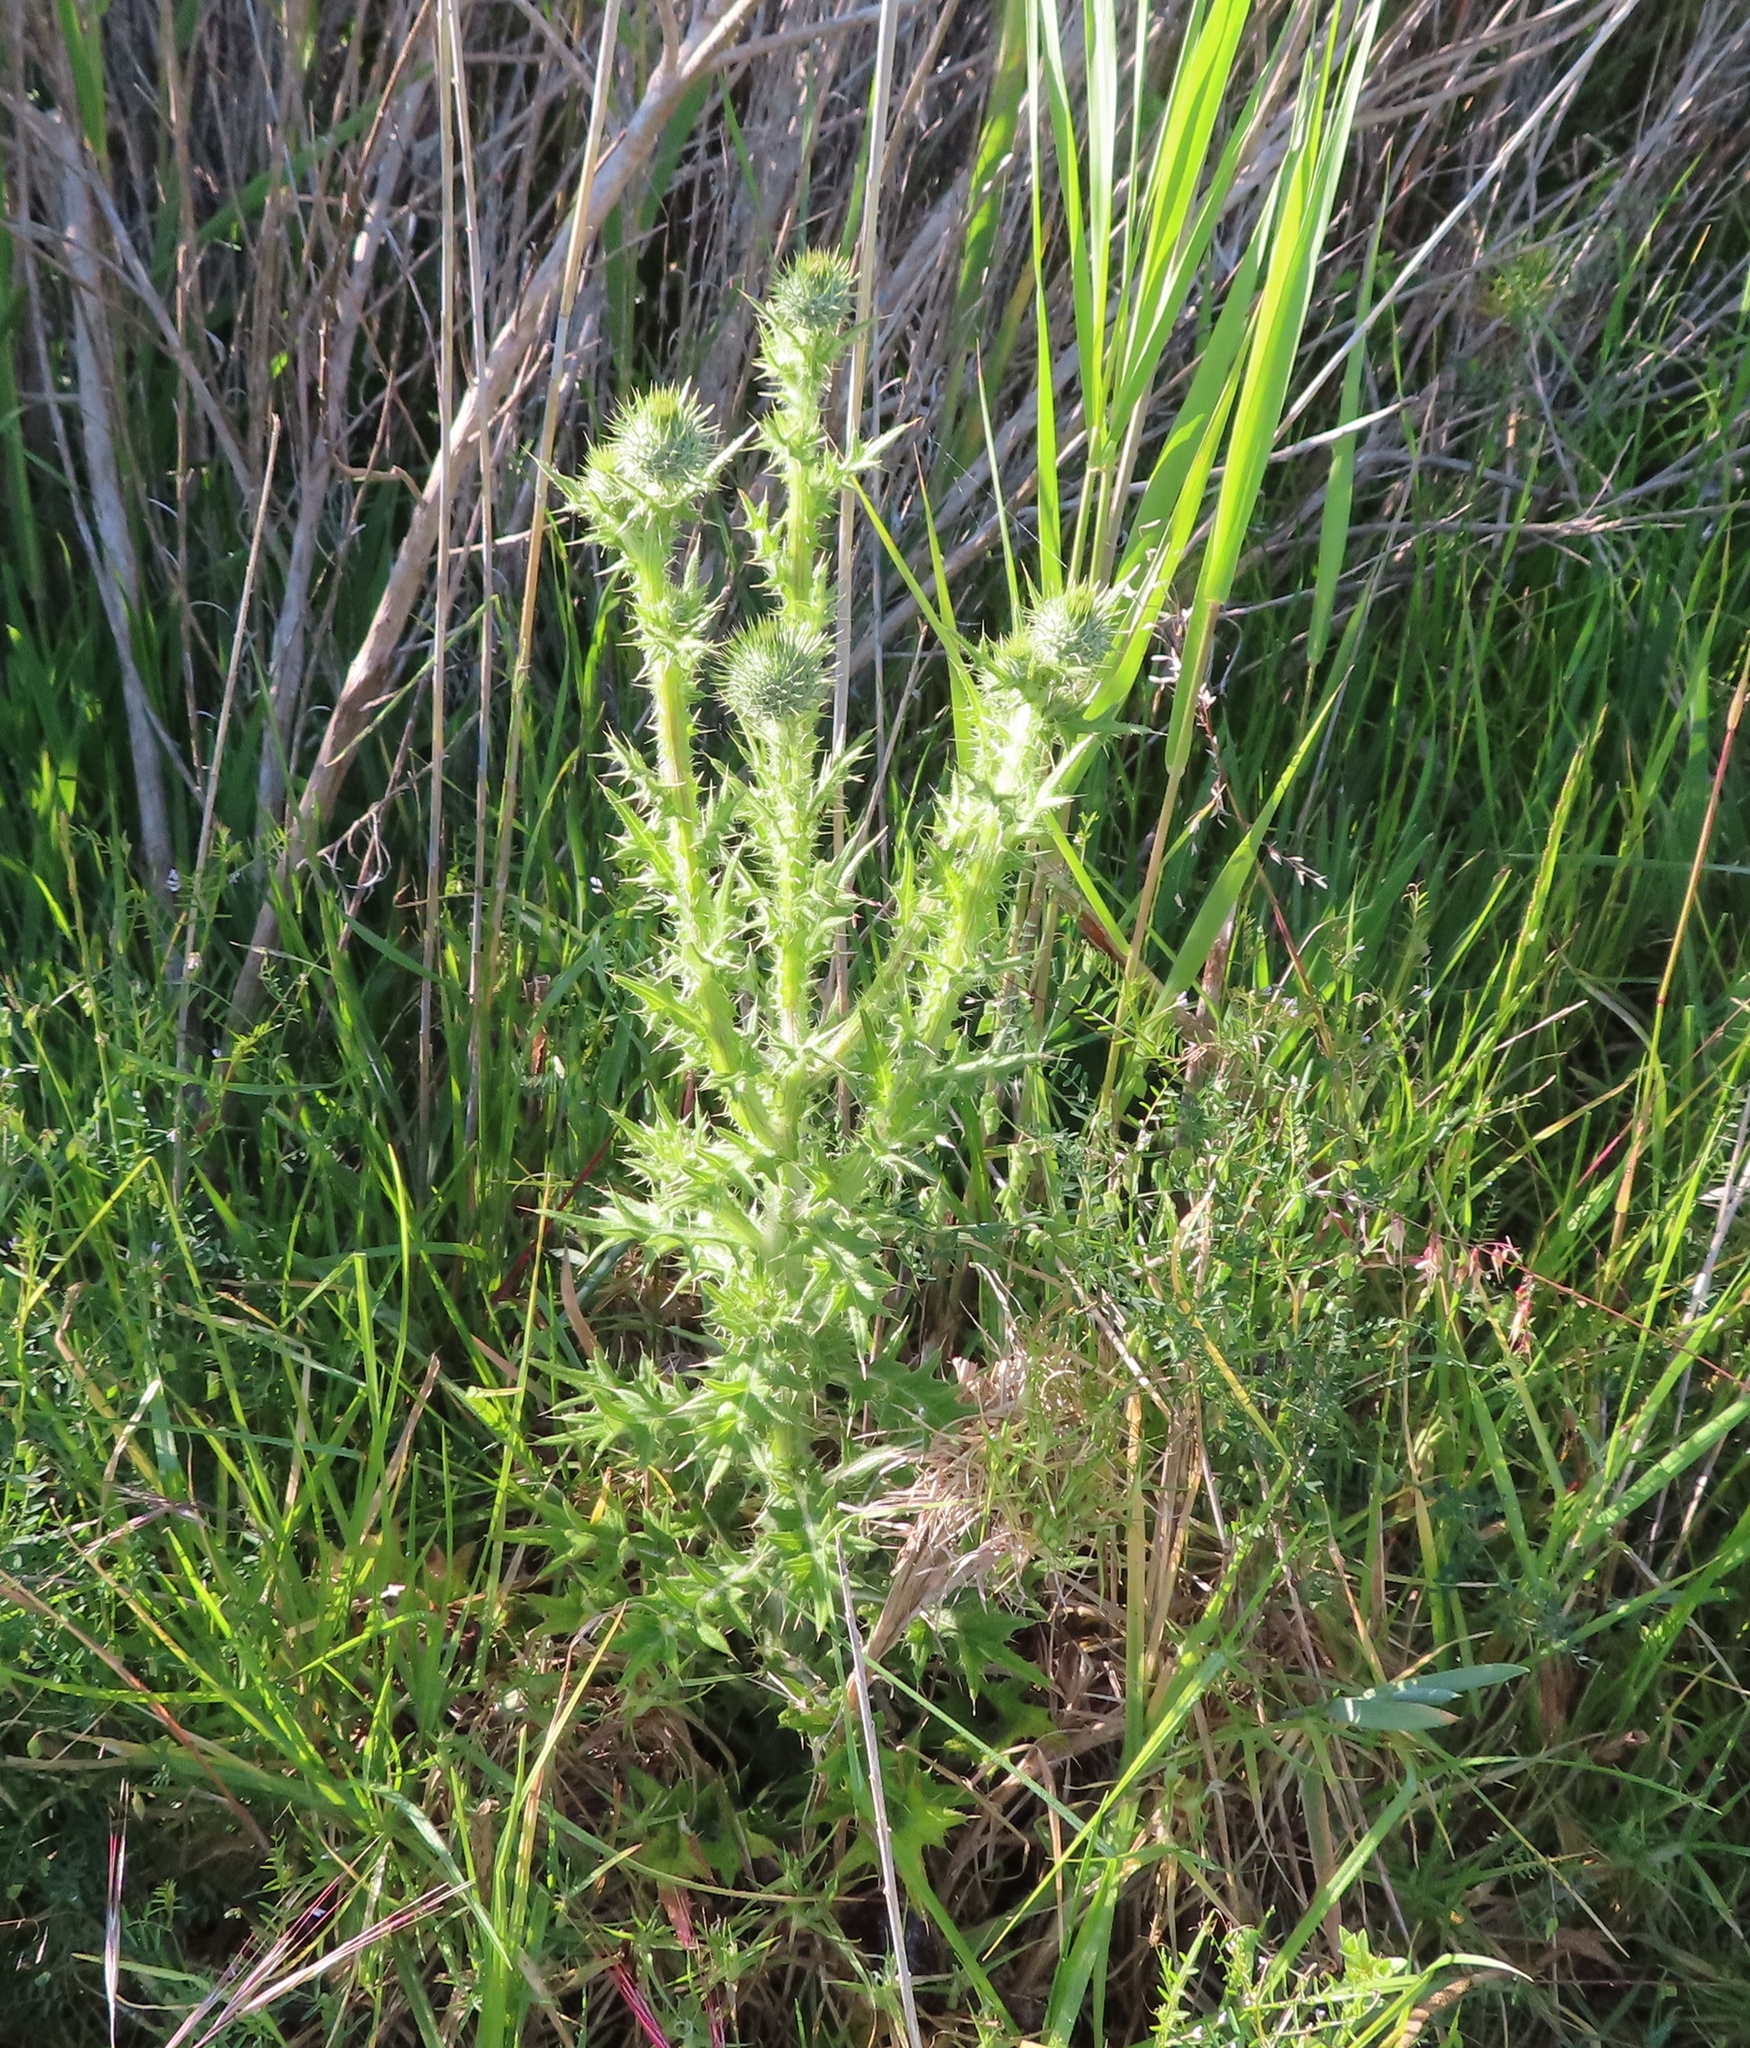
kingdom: Plantae
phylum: Tracheophyta
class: Magnoliopsida
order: Asterales
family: Asteraceae
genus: Cirsium
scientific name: Cirsium vulgare
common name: Bull thistle
